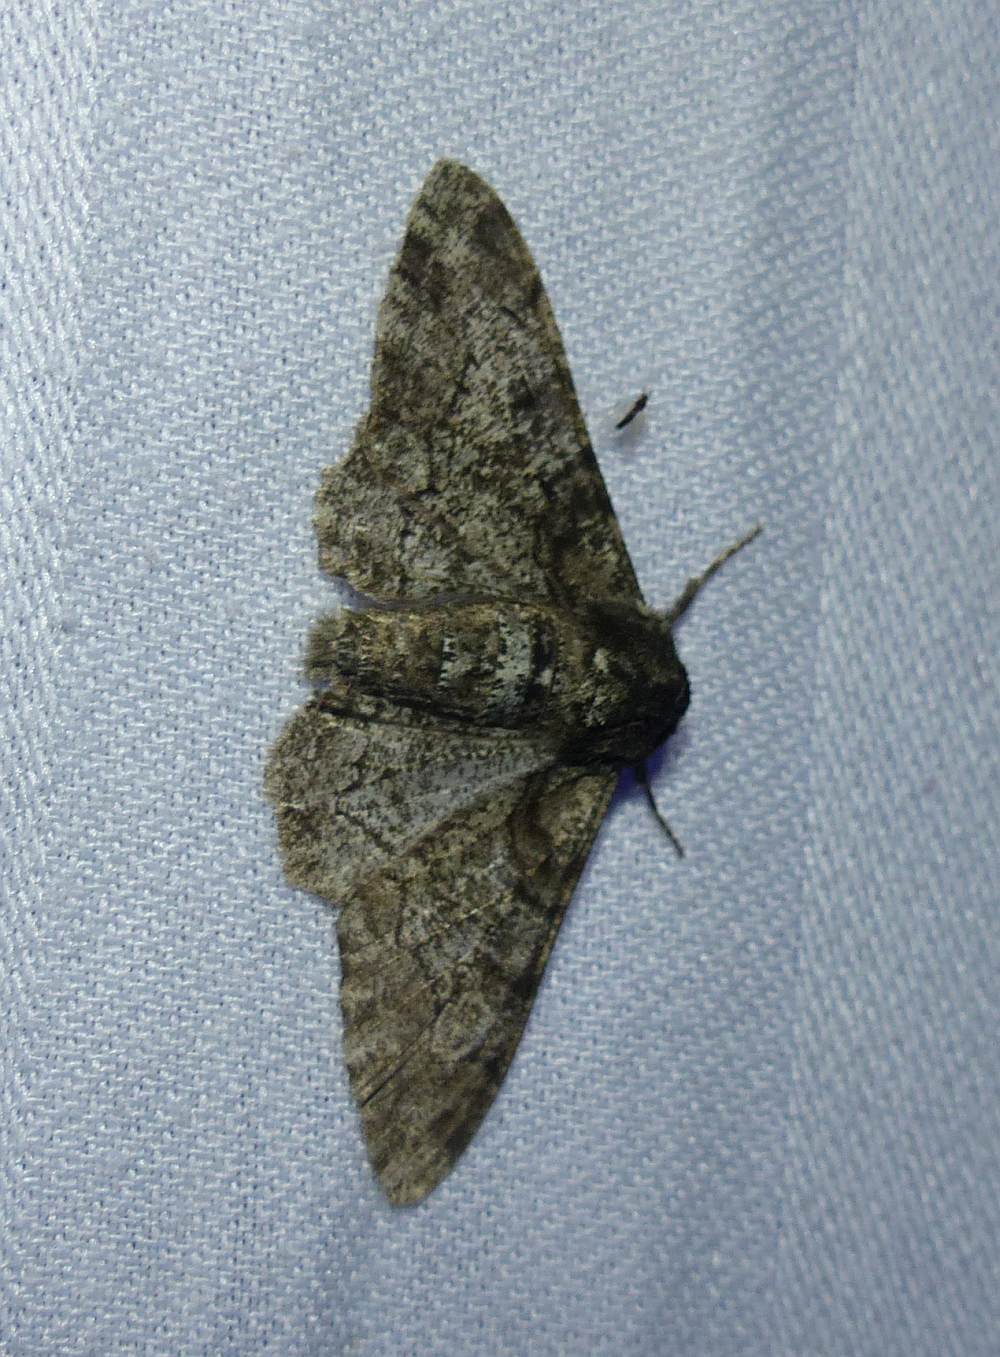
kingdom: Animalia
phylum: Arthropoda
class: Insecta
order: Lepidoptera
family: Geometridae
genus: Biston
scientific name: Biston betularia
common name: Peppered moth
